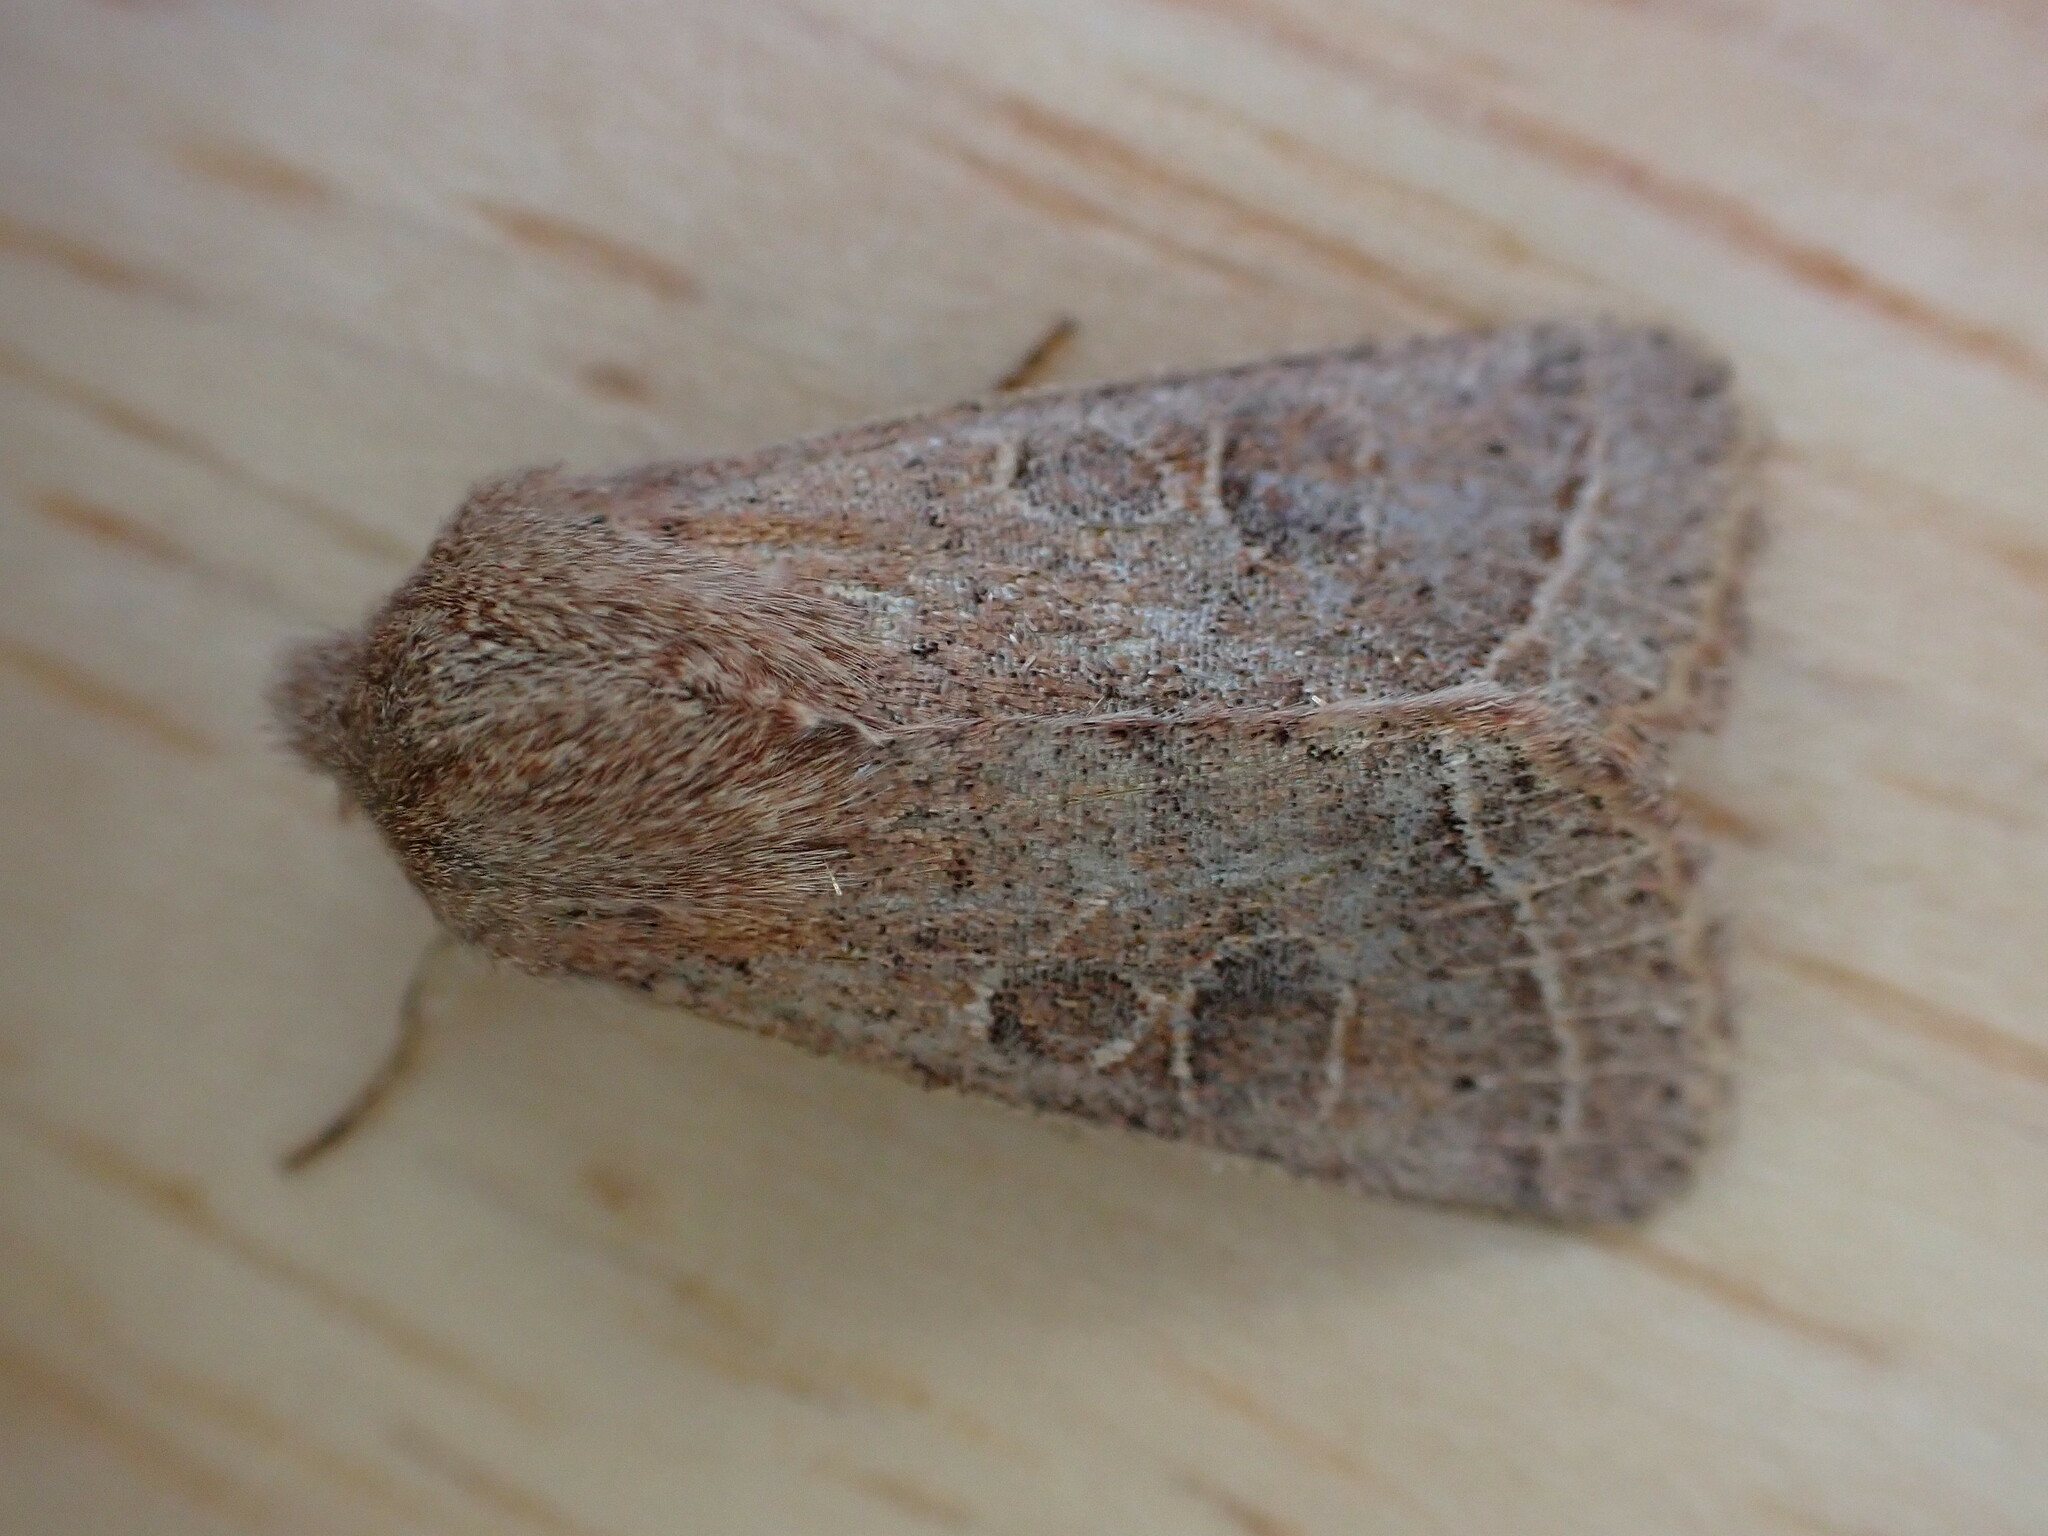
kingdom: Animalia
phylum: Arthropoda
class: Insecta
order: Lepidoptera
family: Noctuidae
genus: Orthosia
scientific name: Orthosia cerasi
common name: Common quaker
